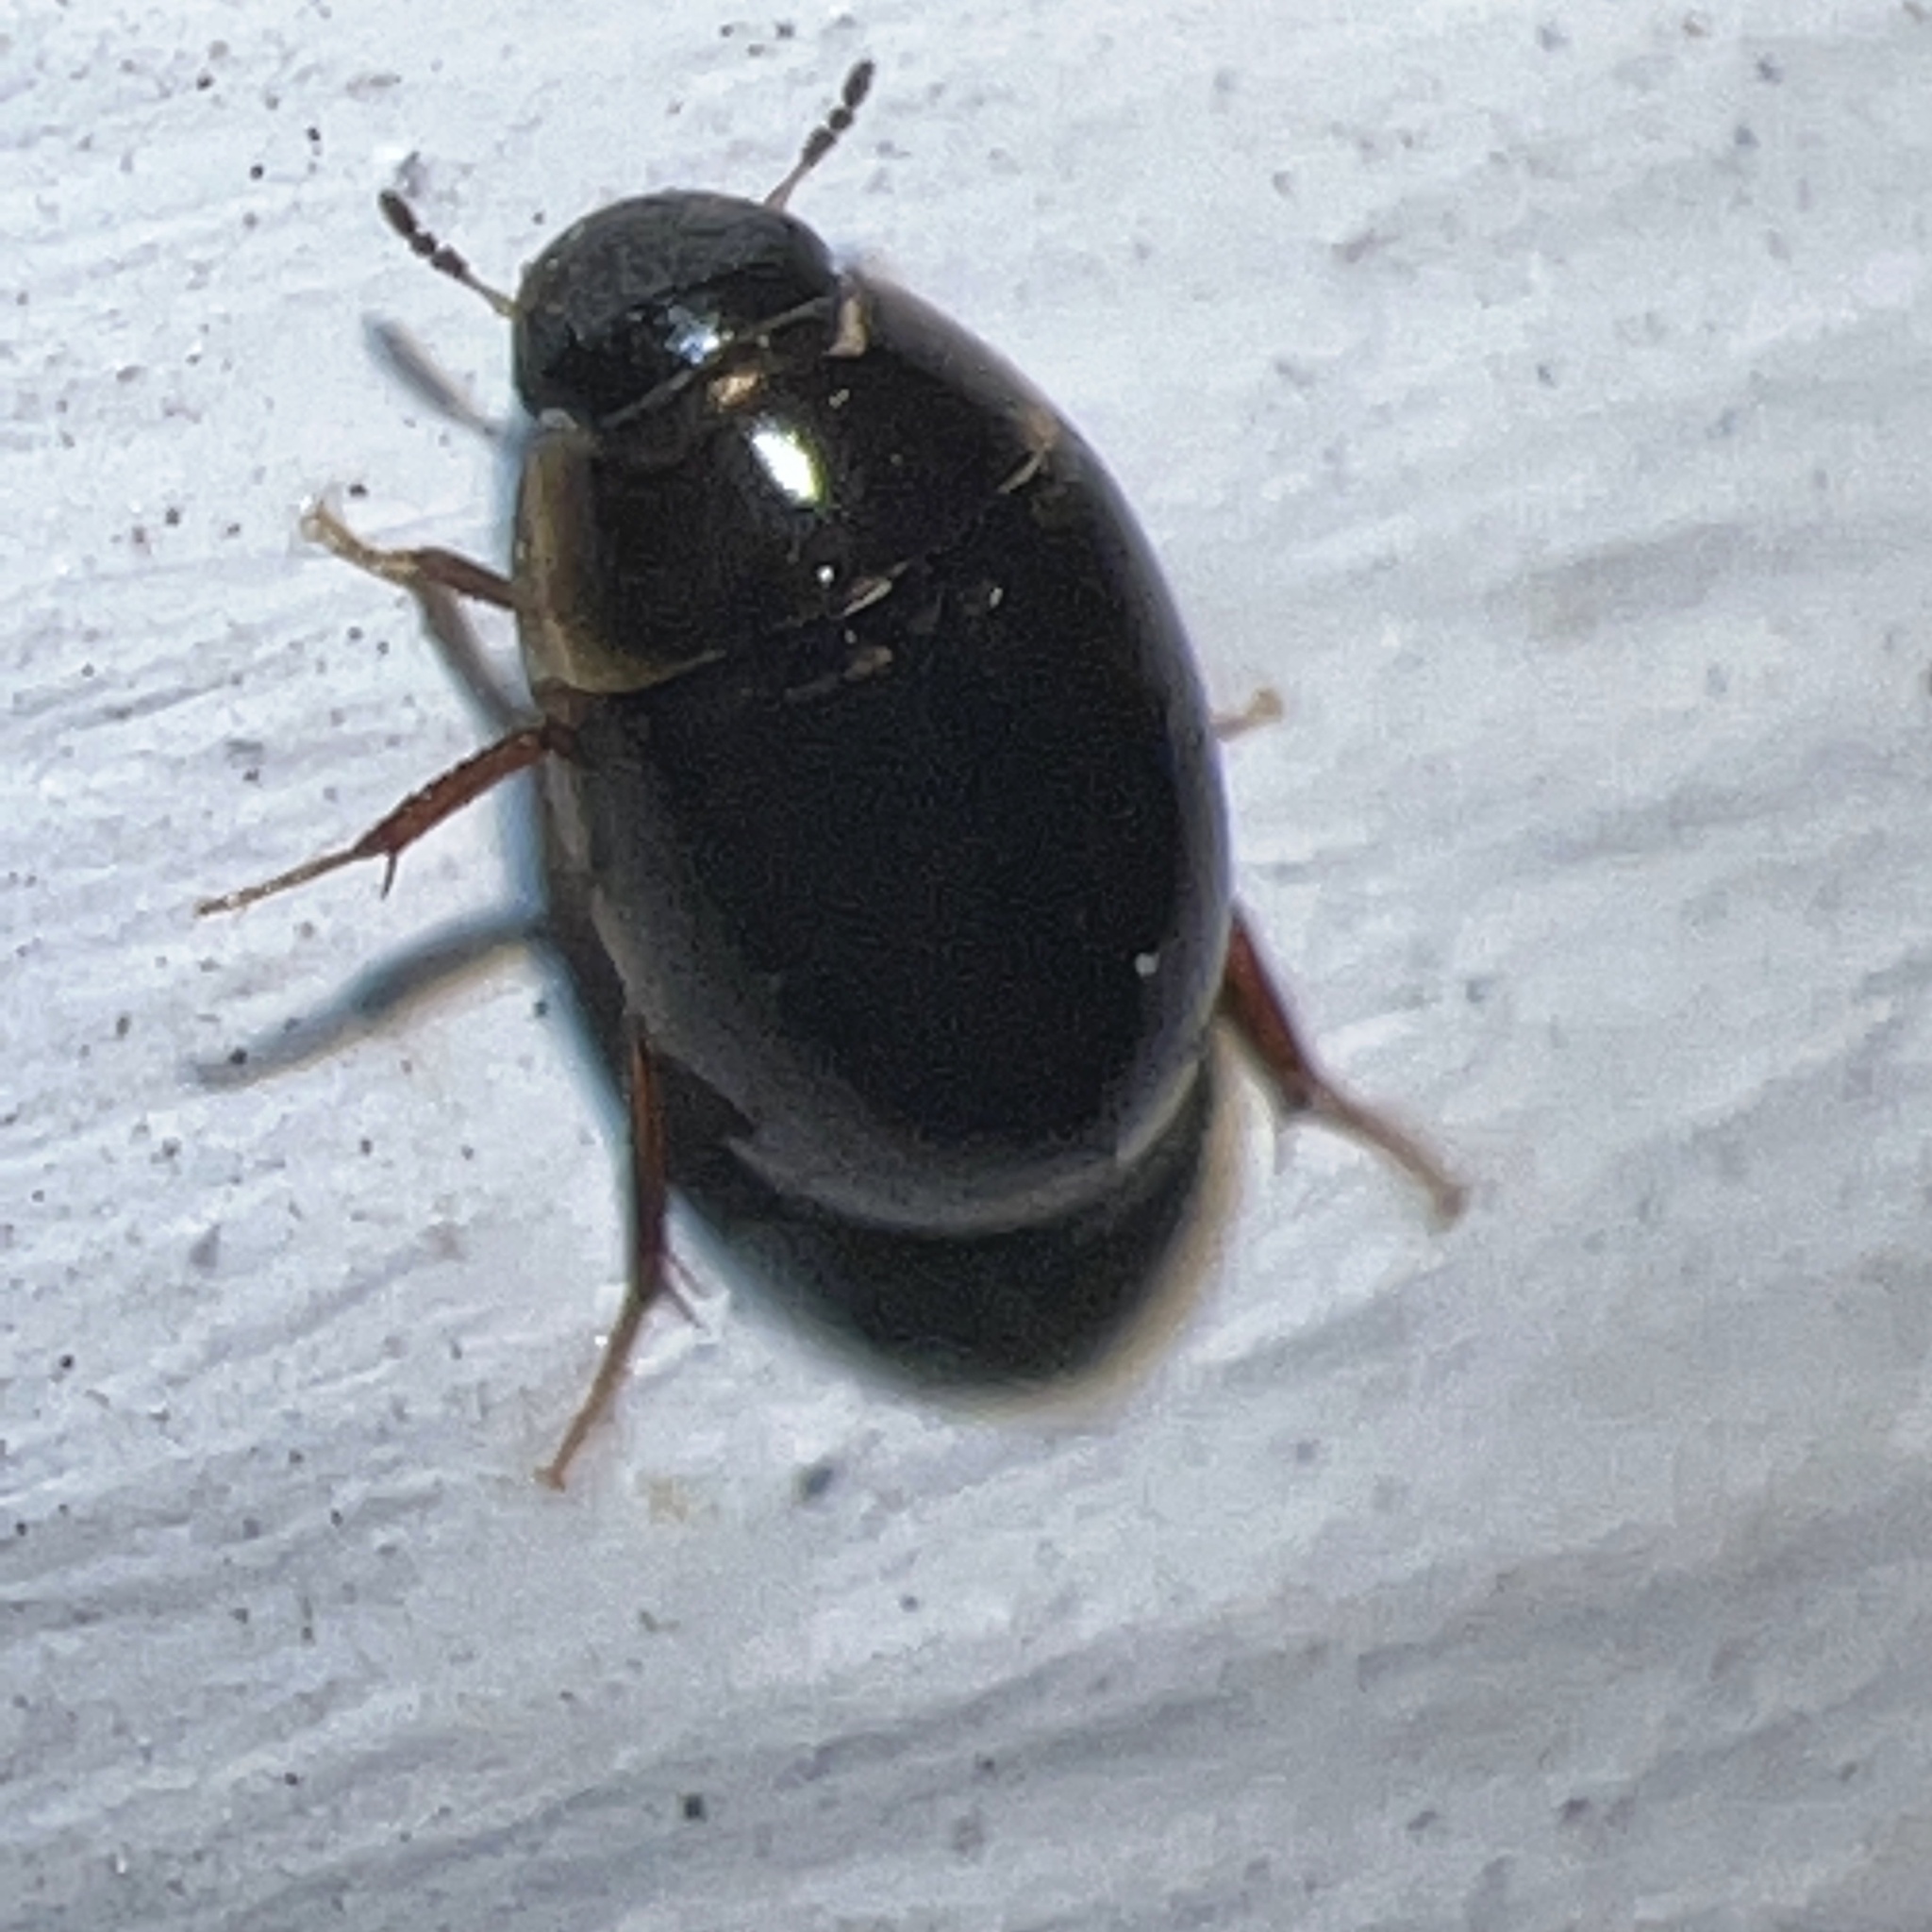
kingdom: Animalia
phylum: Arthropoda
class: Insecta
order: Coleoptera
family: Hydrophilidae
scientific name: Hydrophilidae
